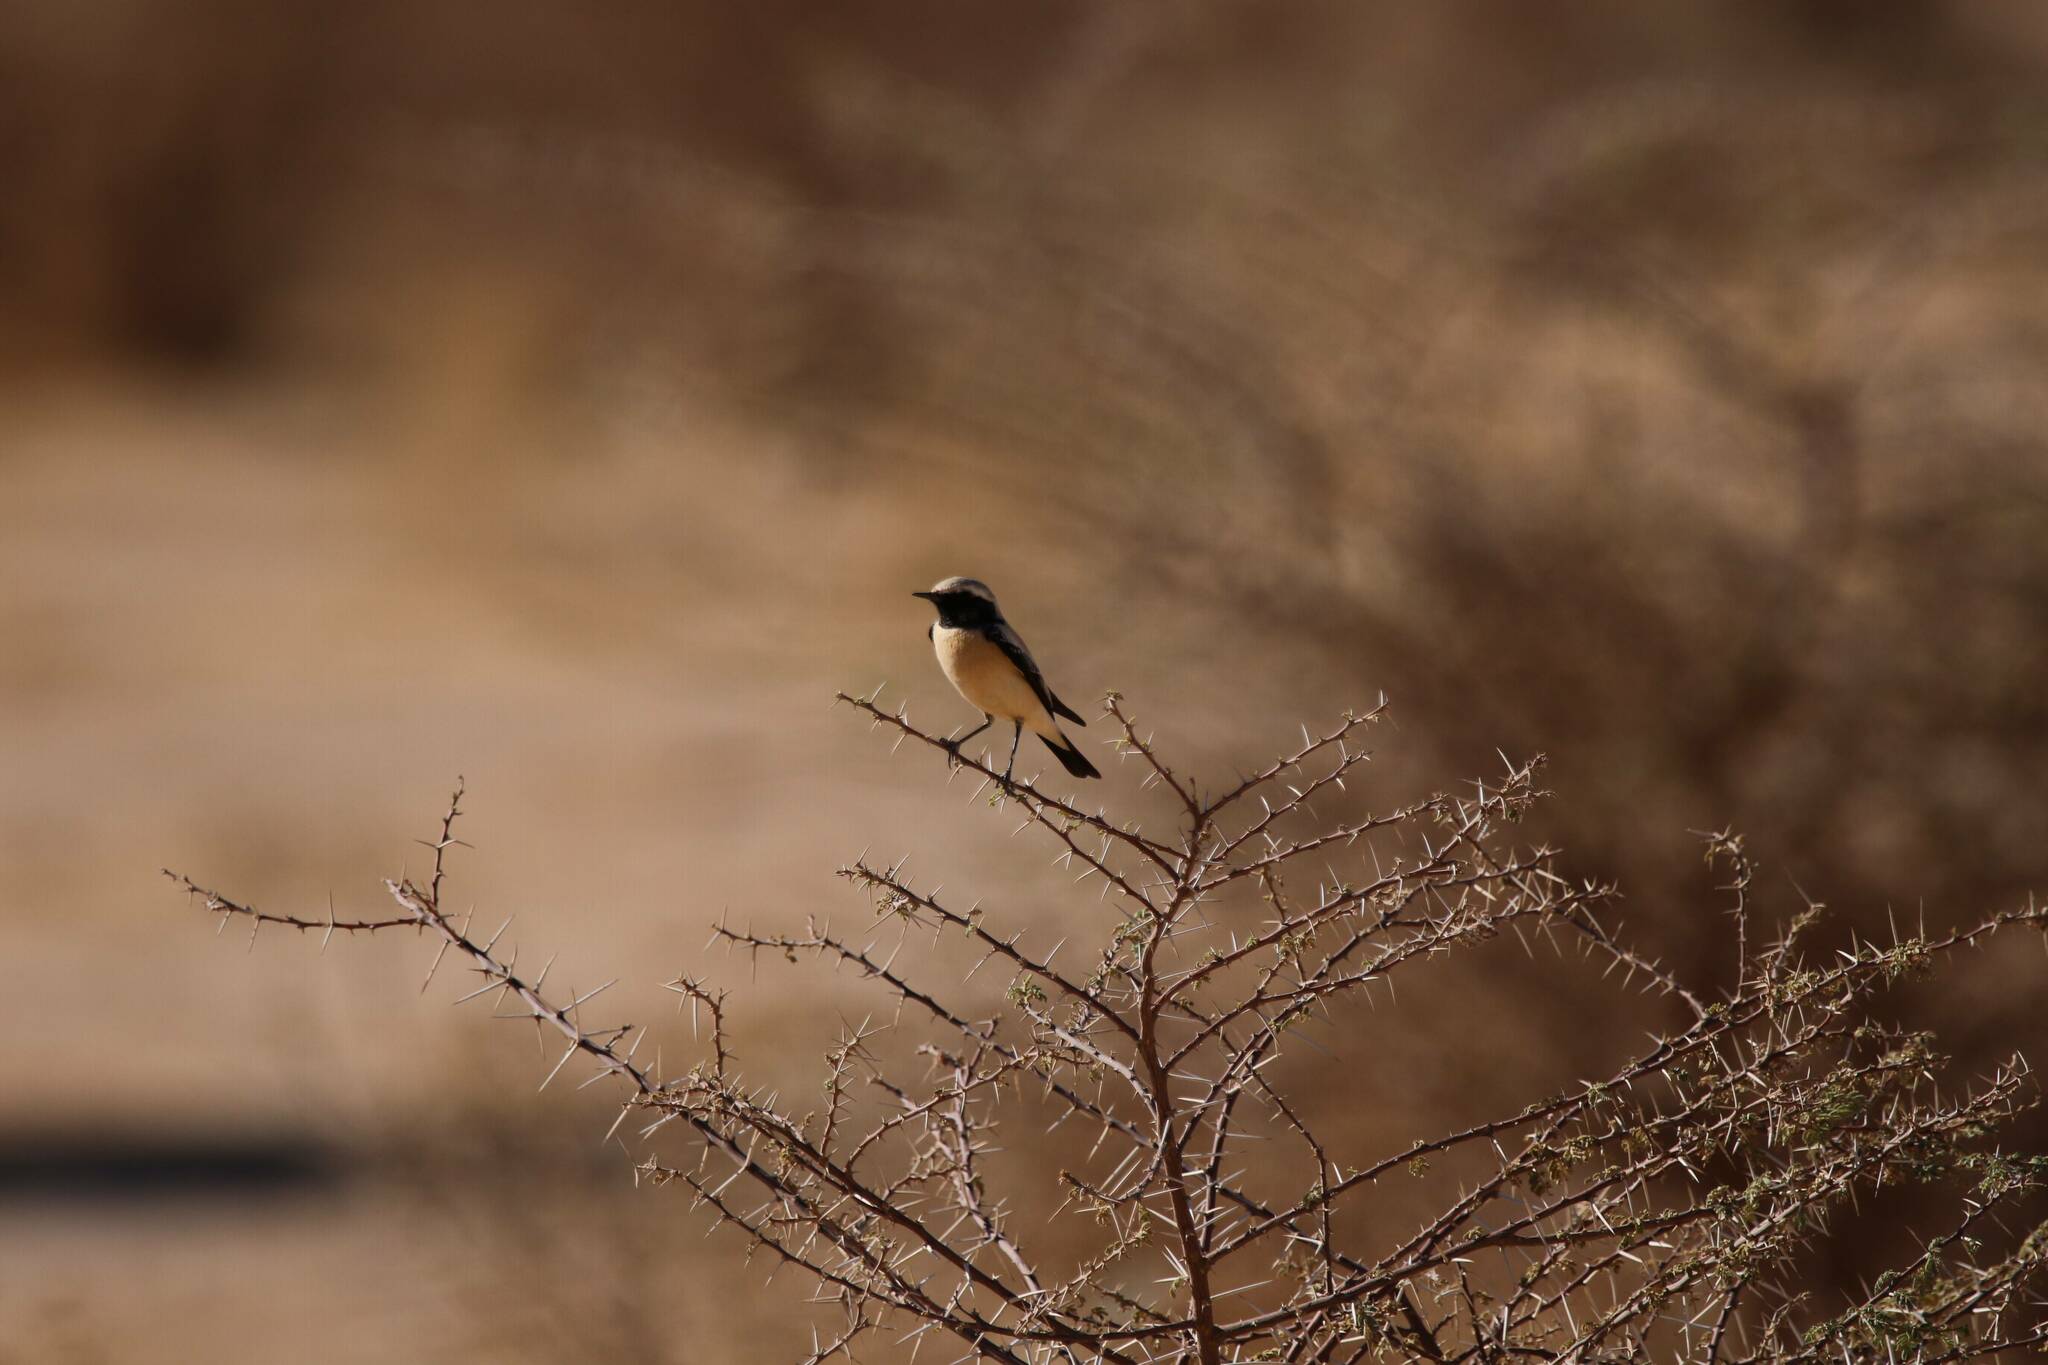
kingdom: Animalia
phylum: Chordata
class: Aves
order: Passeriformes
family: Muscicapidae
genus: Oenanthe
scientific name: Oenanthe deserti
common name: Desert wheatear
